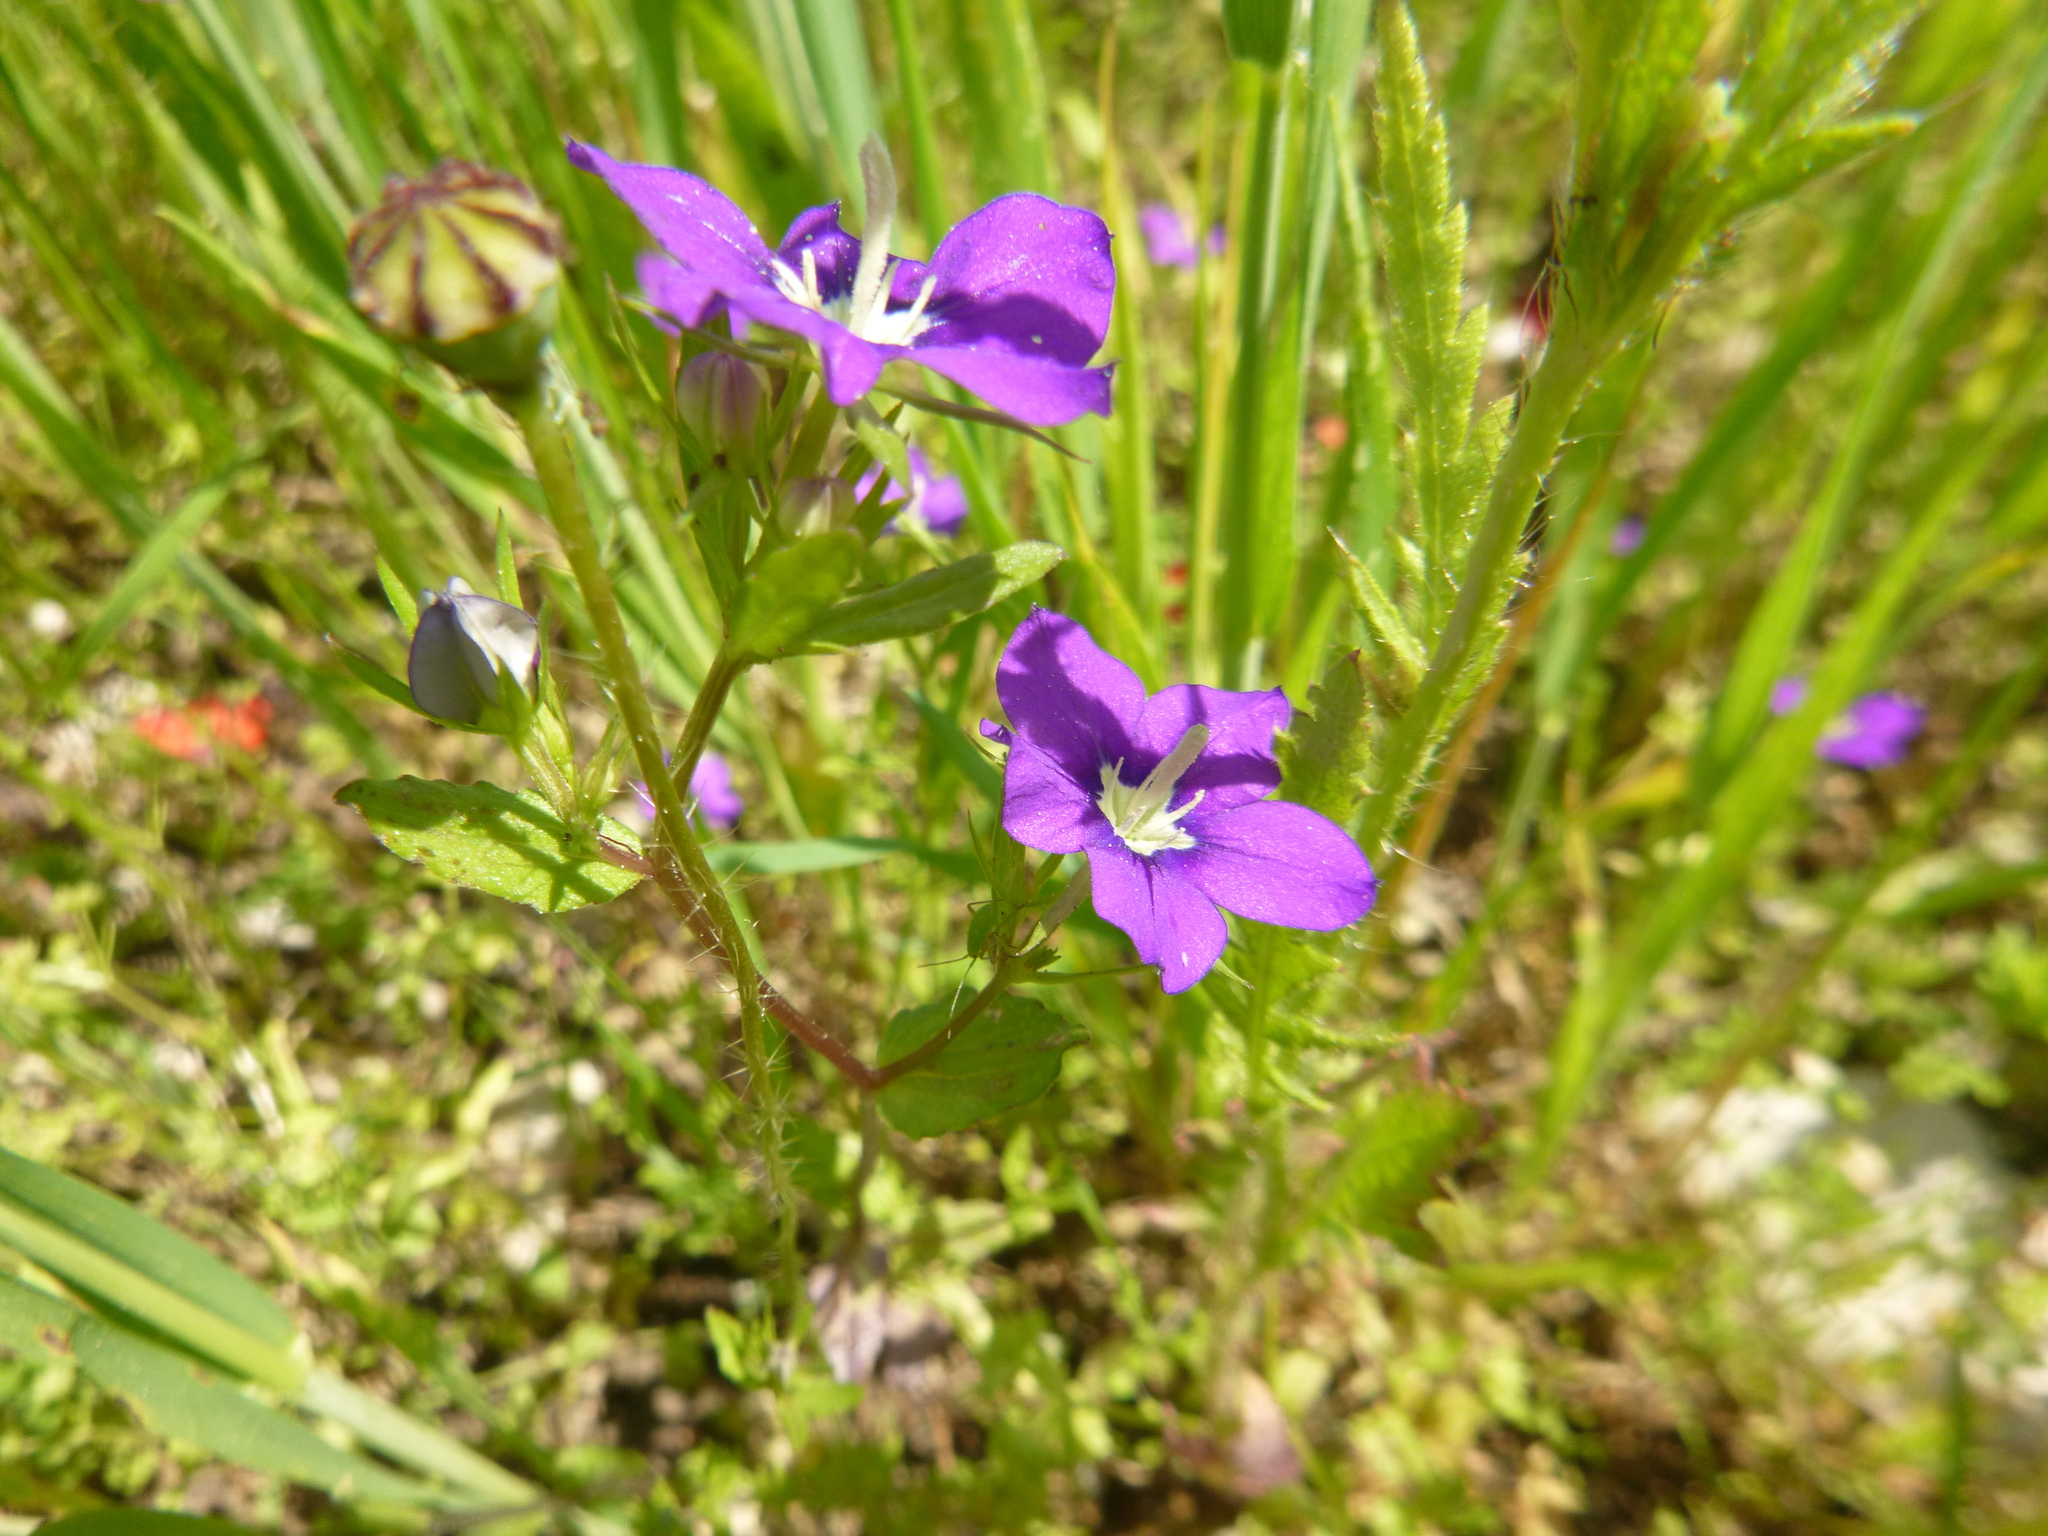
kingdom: Plantae
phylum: Tracheophyta
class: Magnoliopsida
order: Asterales
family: Campanulaceae
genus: Legousia
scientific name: Legousia speculum-veneris
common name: Large venus's-looking-glass
